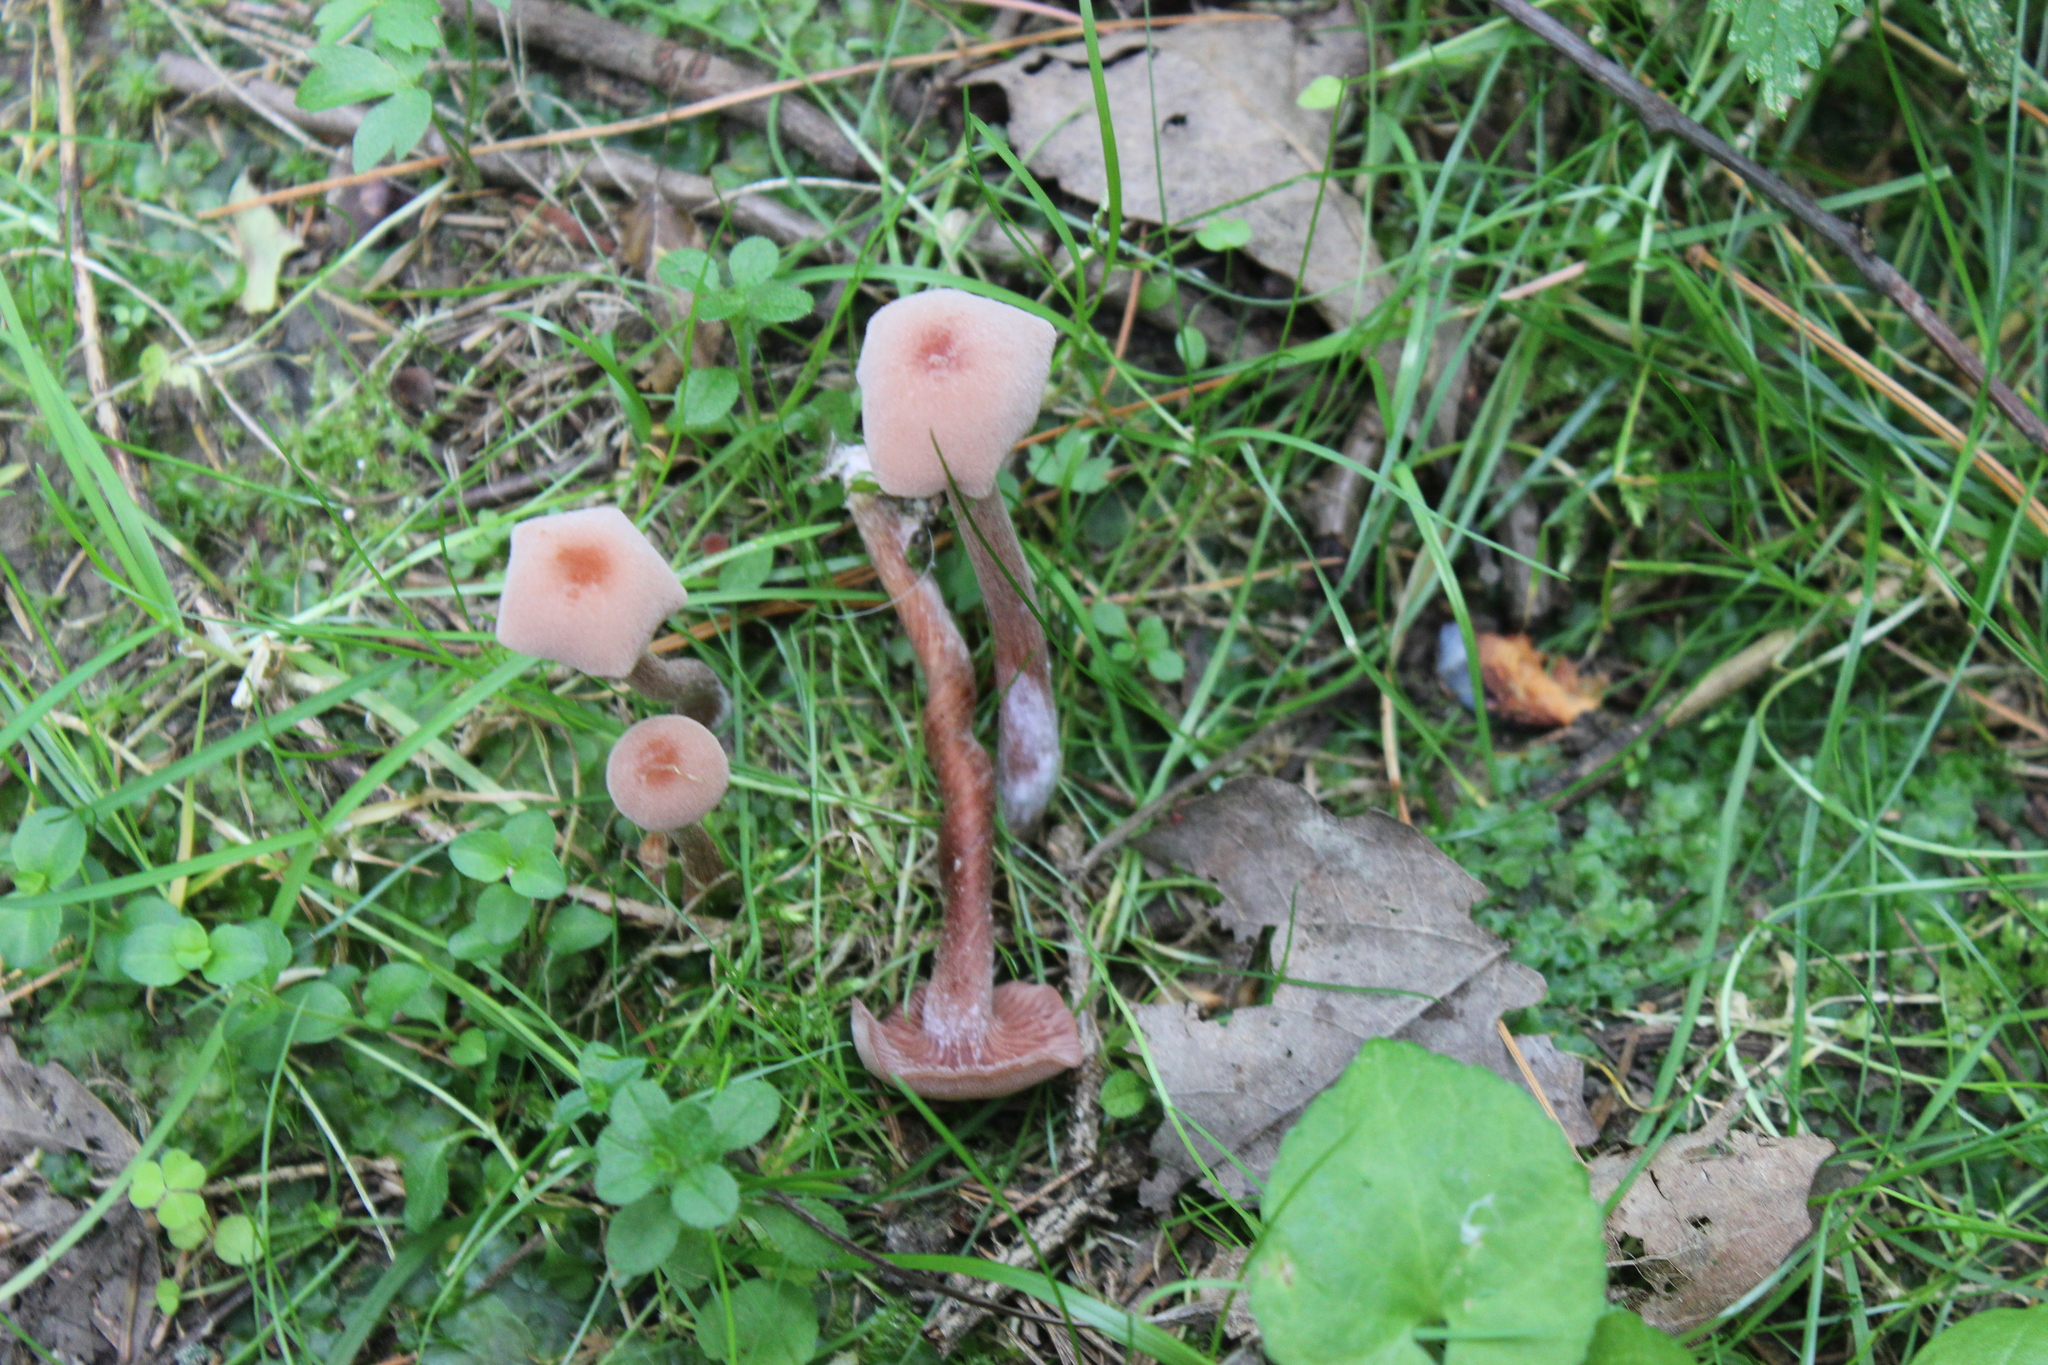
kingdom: Fungi
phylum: Basidiomycota
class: Agaricomycetes
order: Agaricales
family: Hydnangiaceae
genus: Laccaria
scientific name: Laccaria bicolor
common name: Bicoloured deceiver
